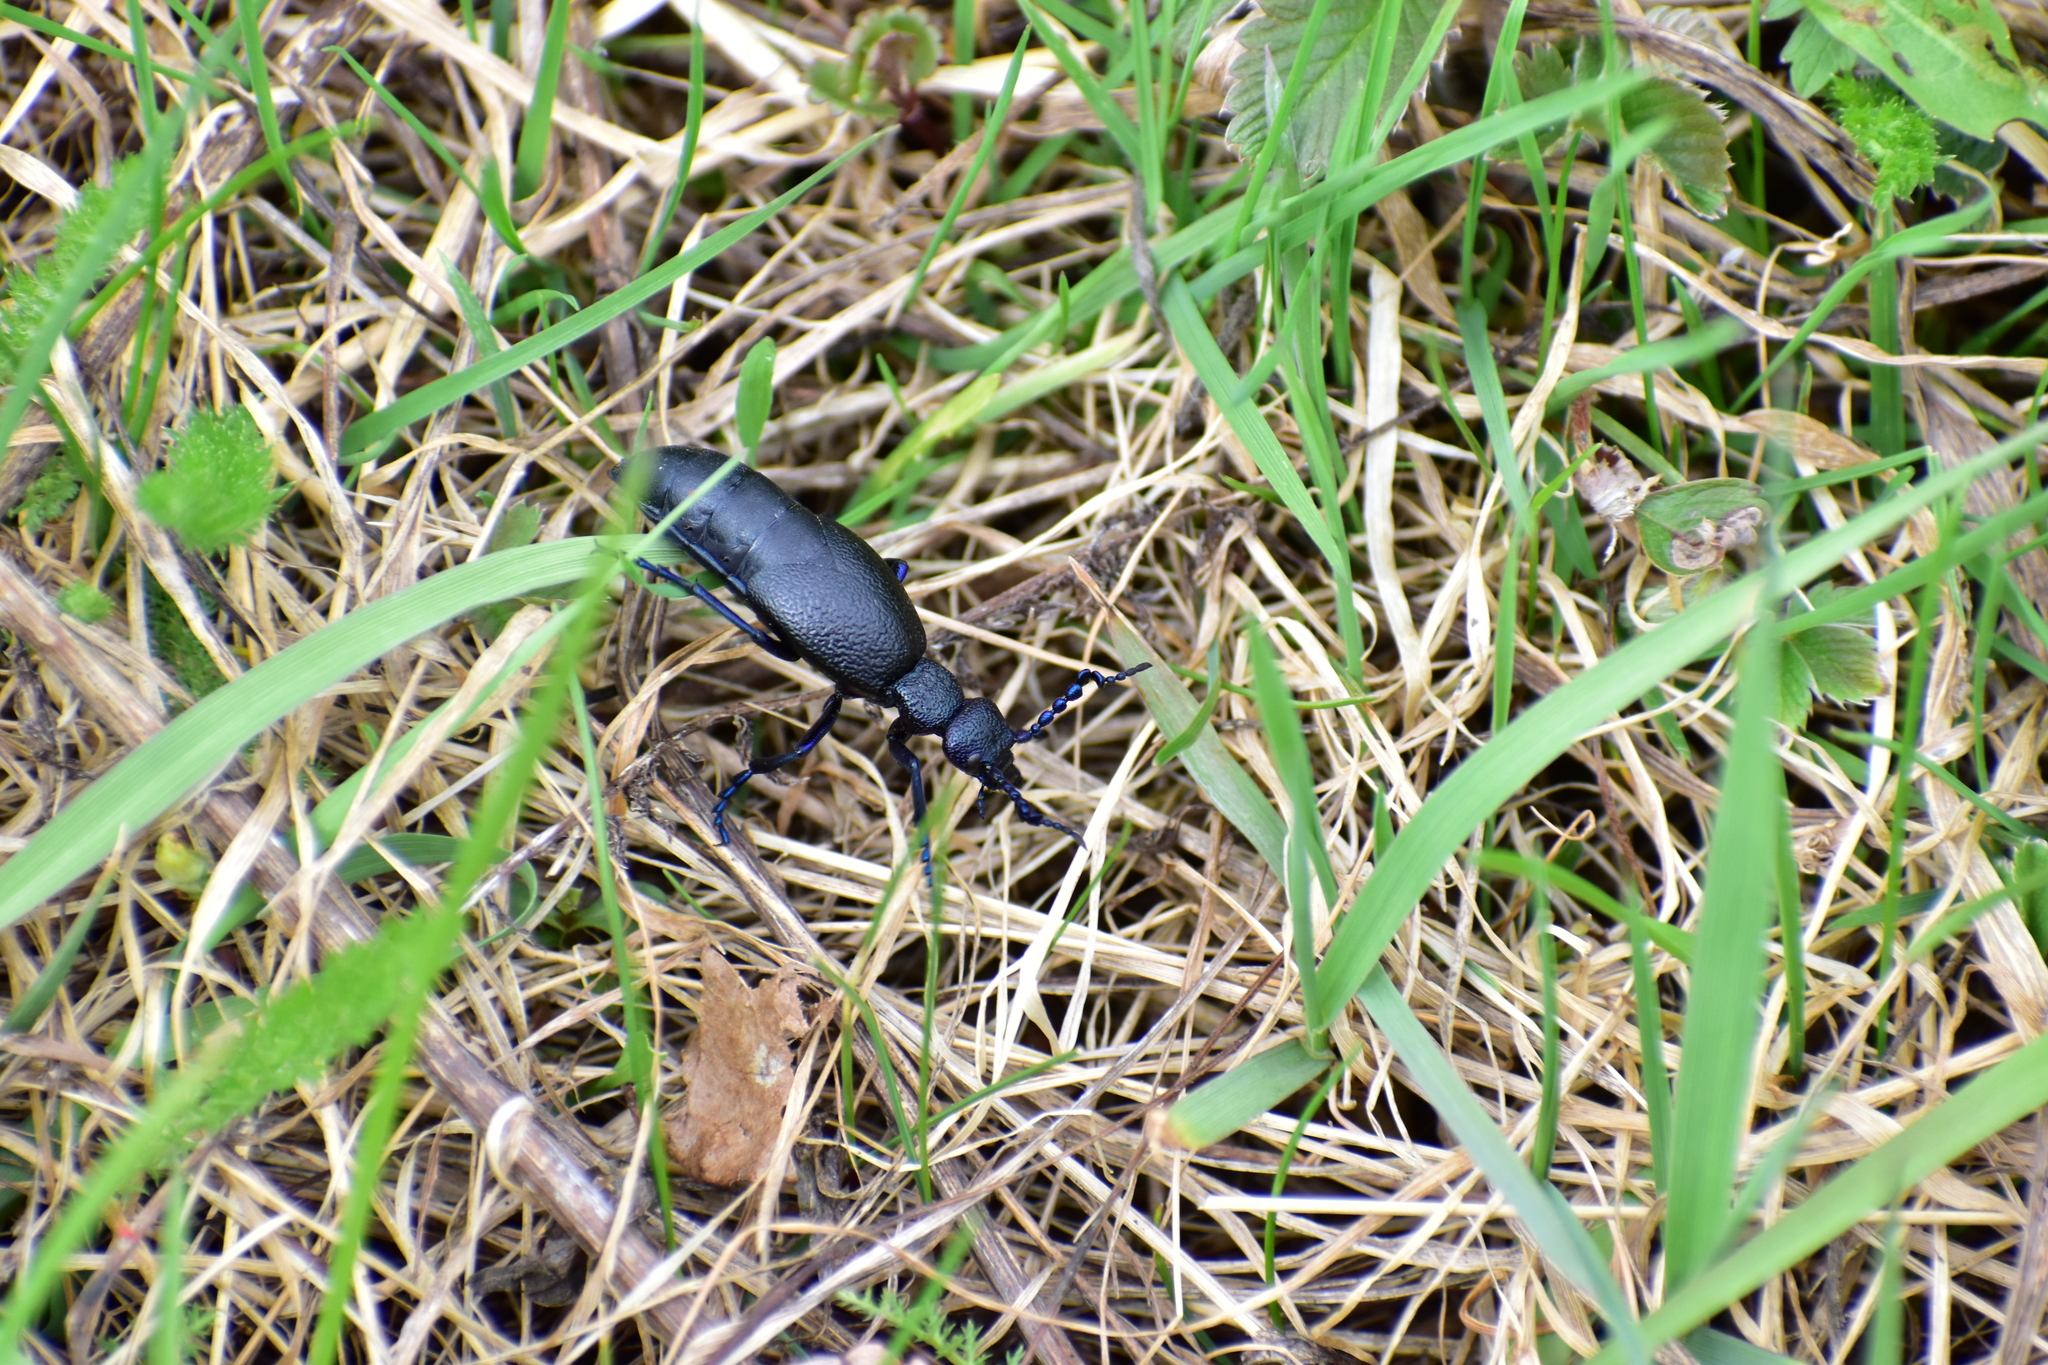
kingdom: Animalia
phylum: Arthropoda
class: Insecta
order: Coleoptera
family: Meloidae
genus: Meloe
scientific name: Meloe proscarabaeus
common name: Black oil-beetle
